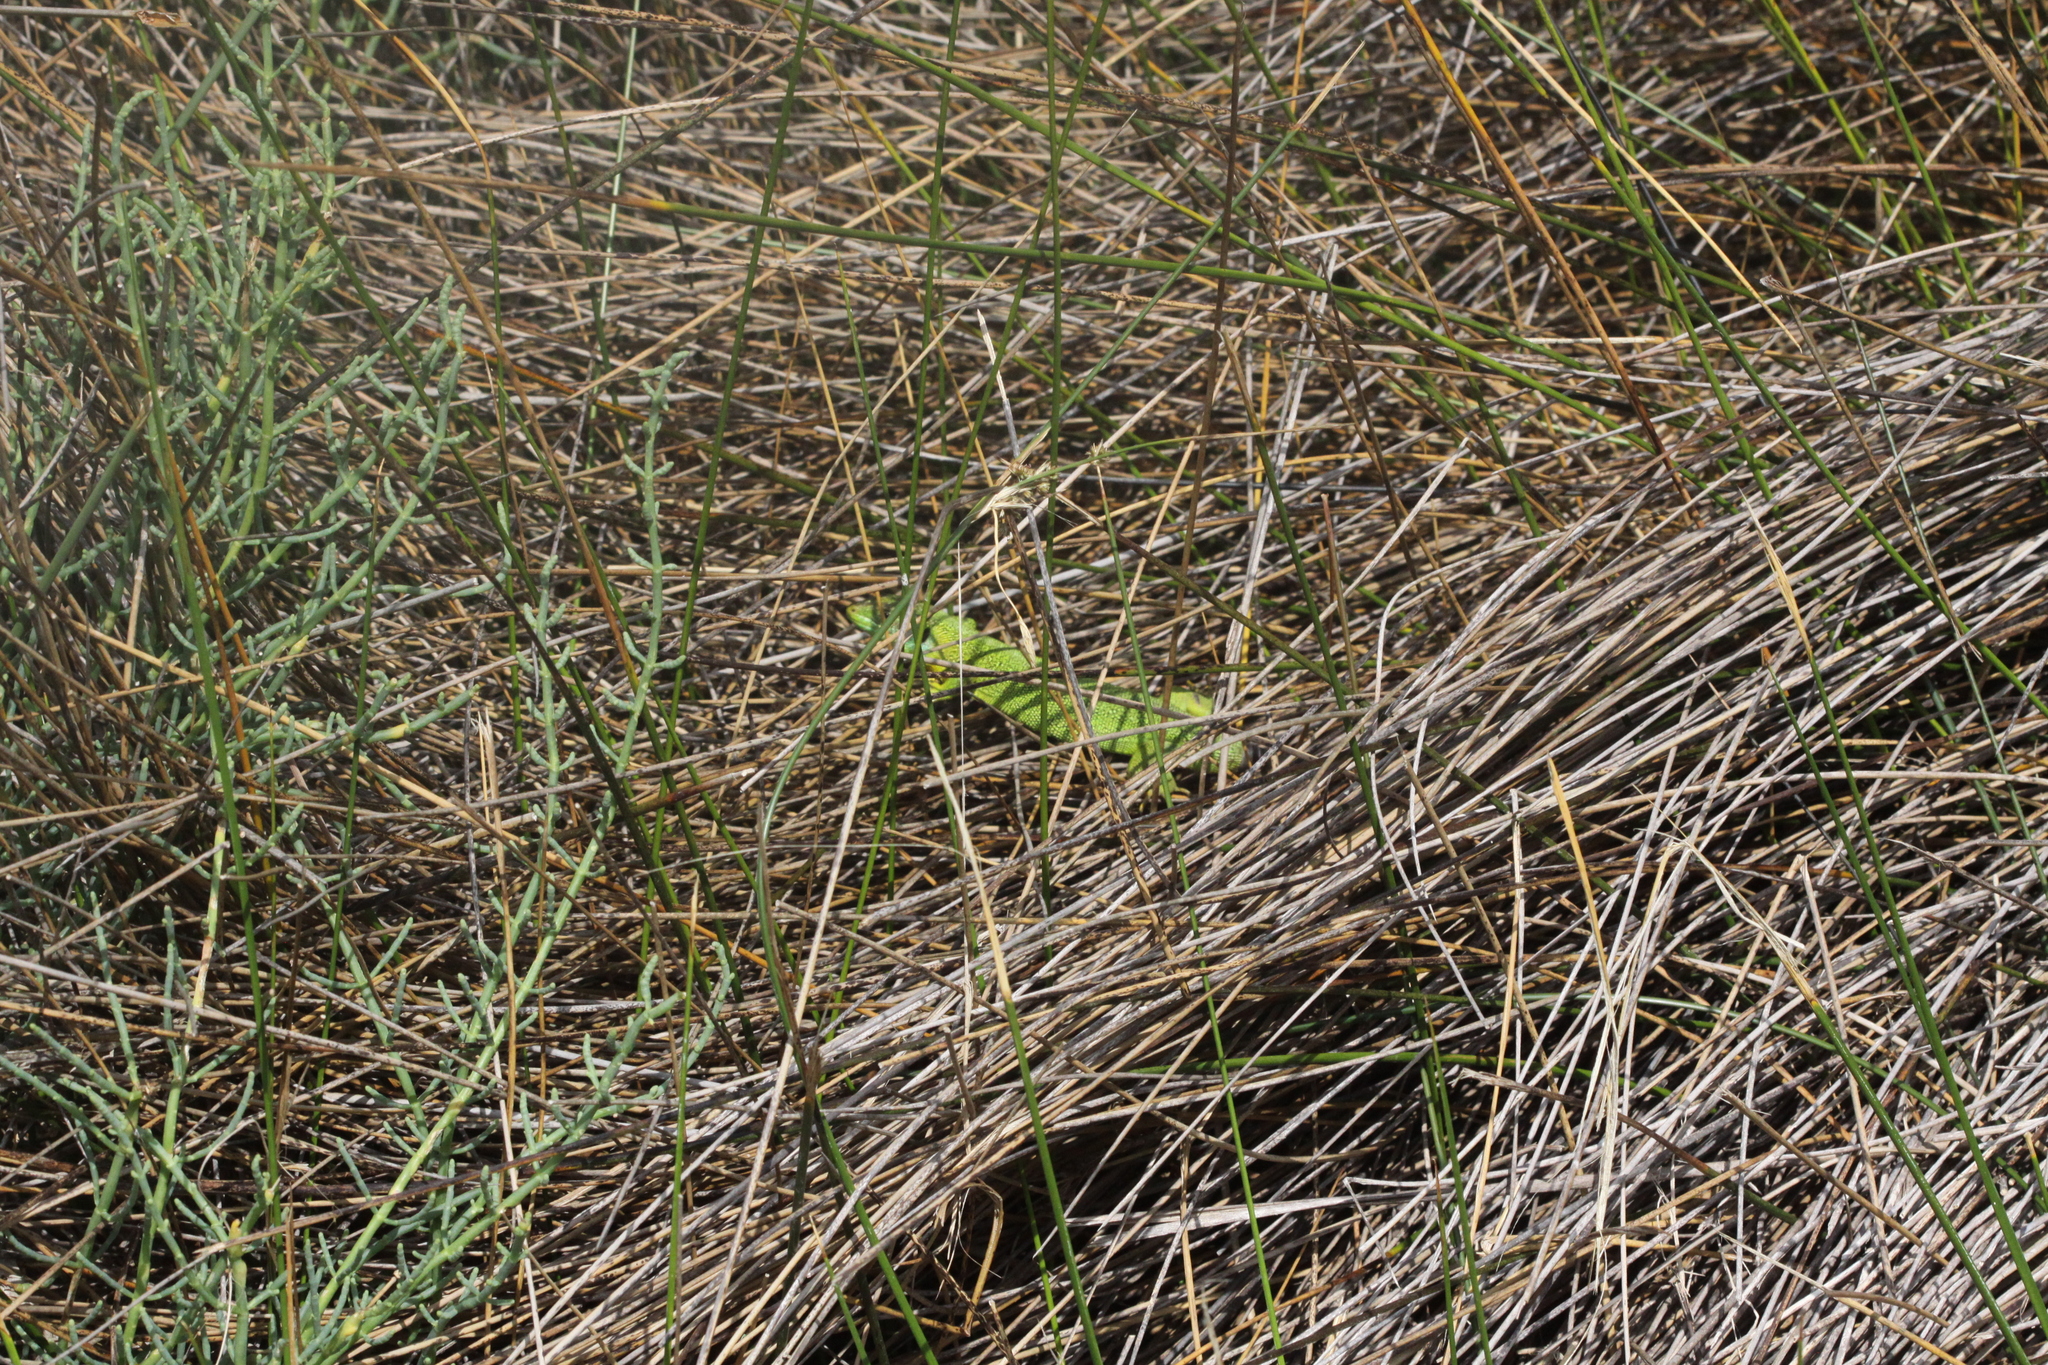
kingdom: Animalia
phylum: Chordata
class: Squamata
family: Lacertidae
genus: Lacerta
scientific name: Lacerta bilineata
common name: Western green lizard
